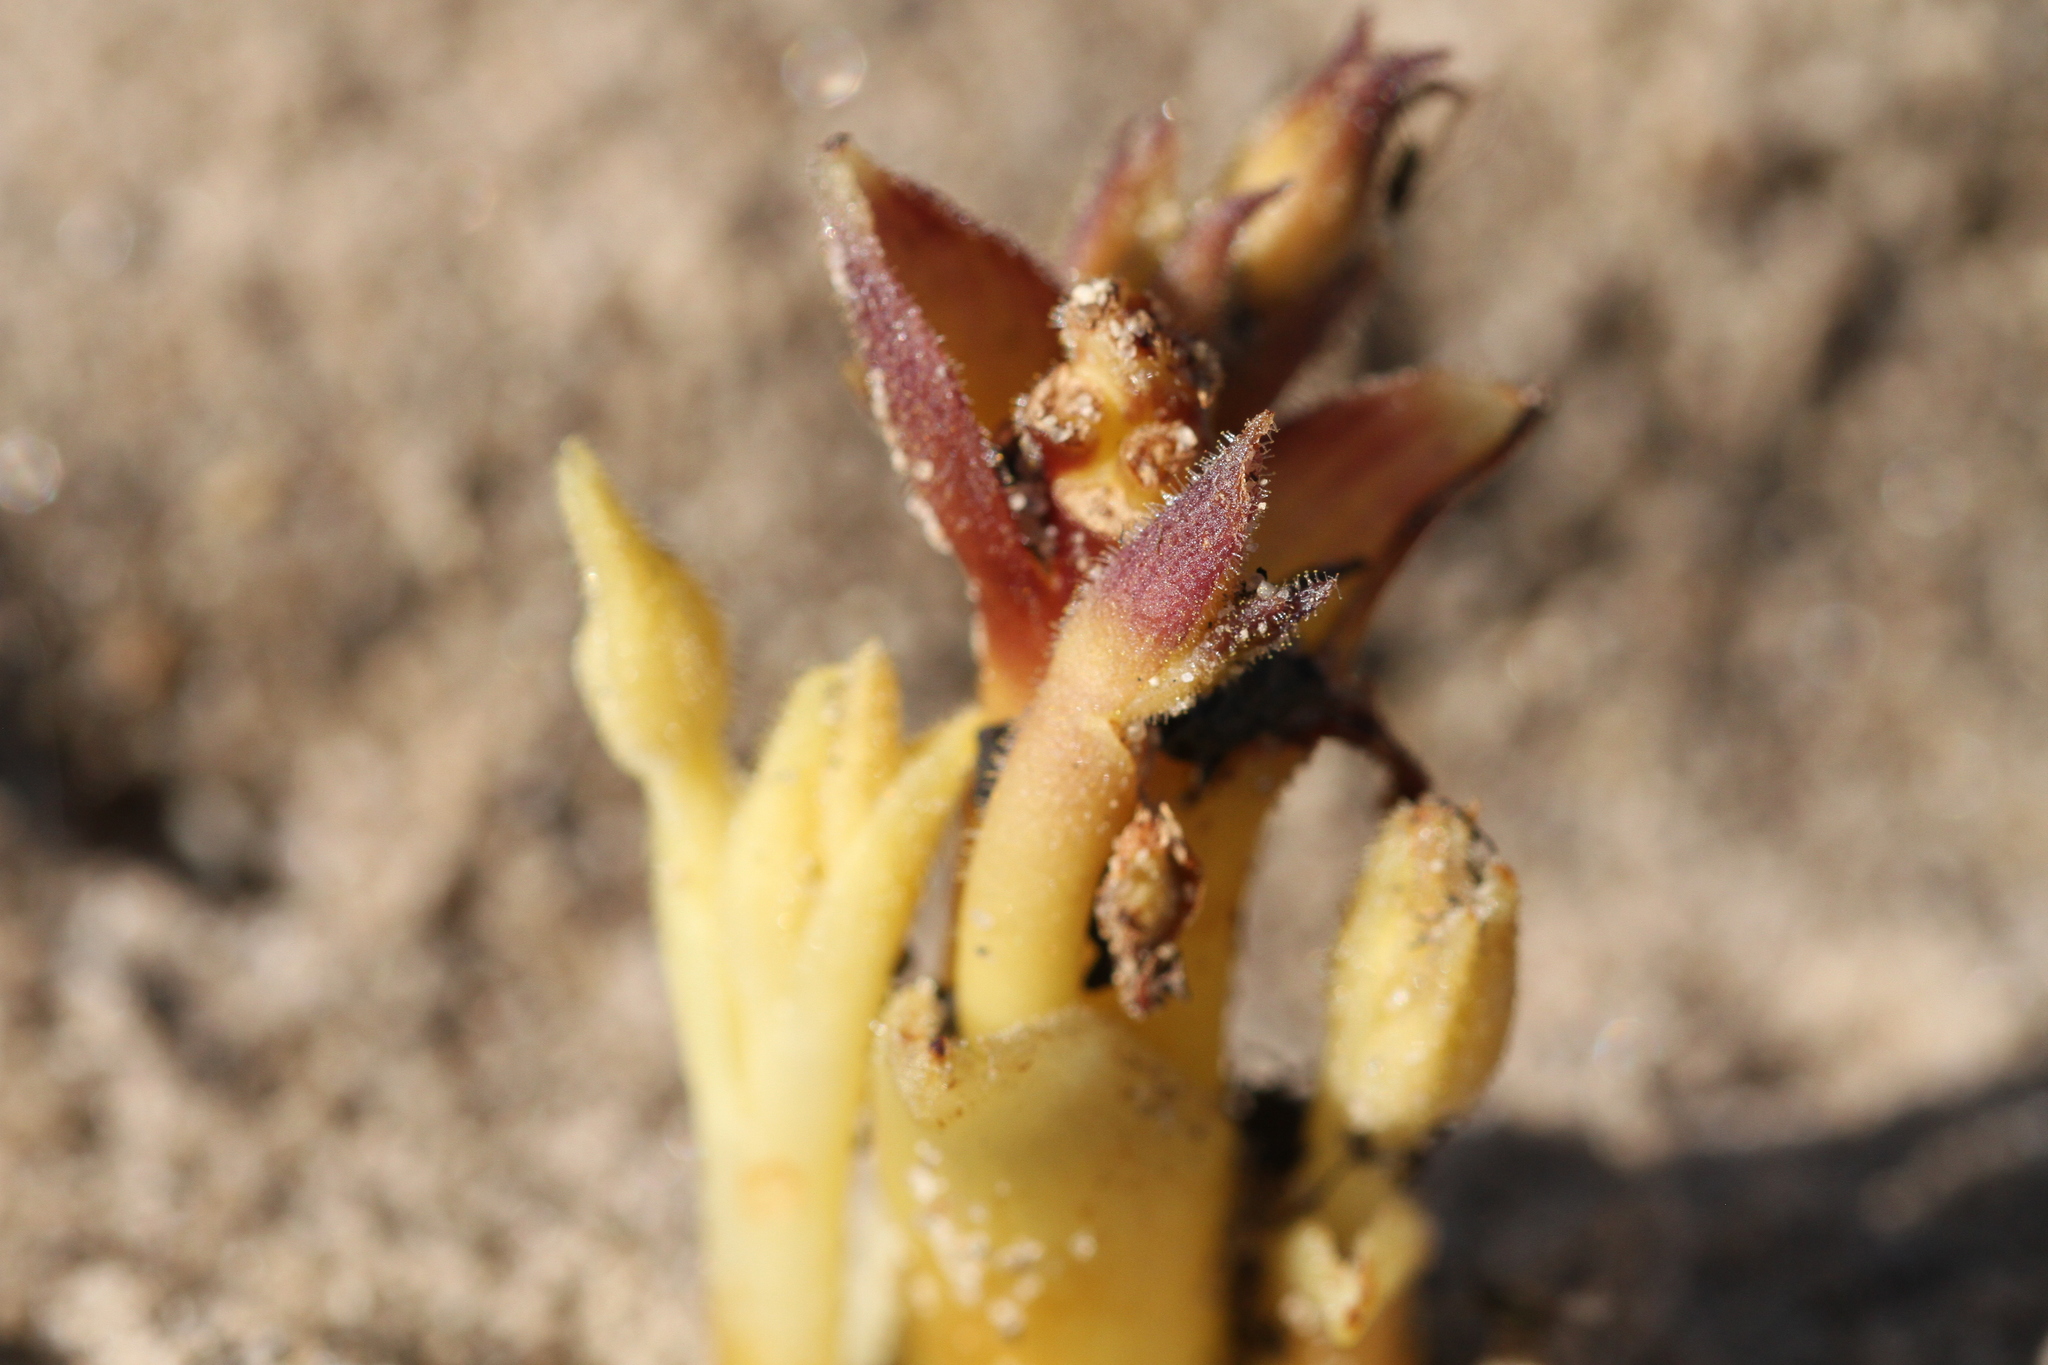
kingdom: Plantae
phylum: Tracheophyta
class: Magnoliopsida
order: Lamiales
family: Orobanchaceae
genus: Aphyllon
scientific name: Aphyllon franciscanum
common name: San francisco broomrape
